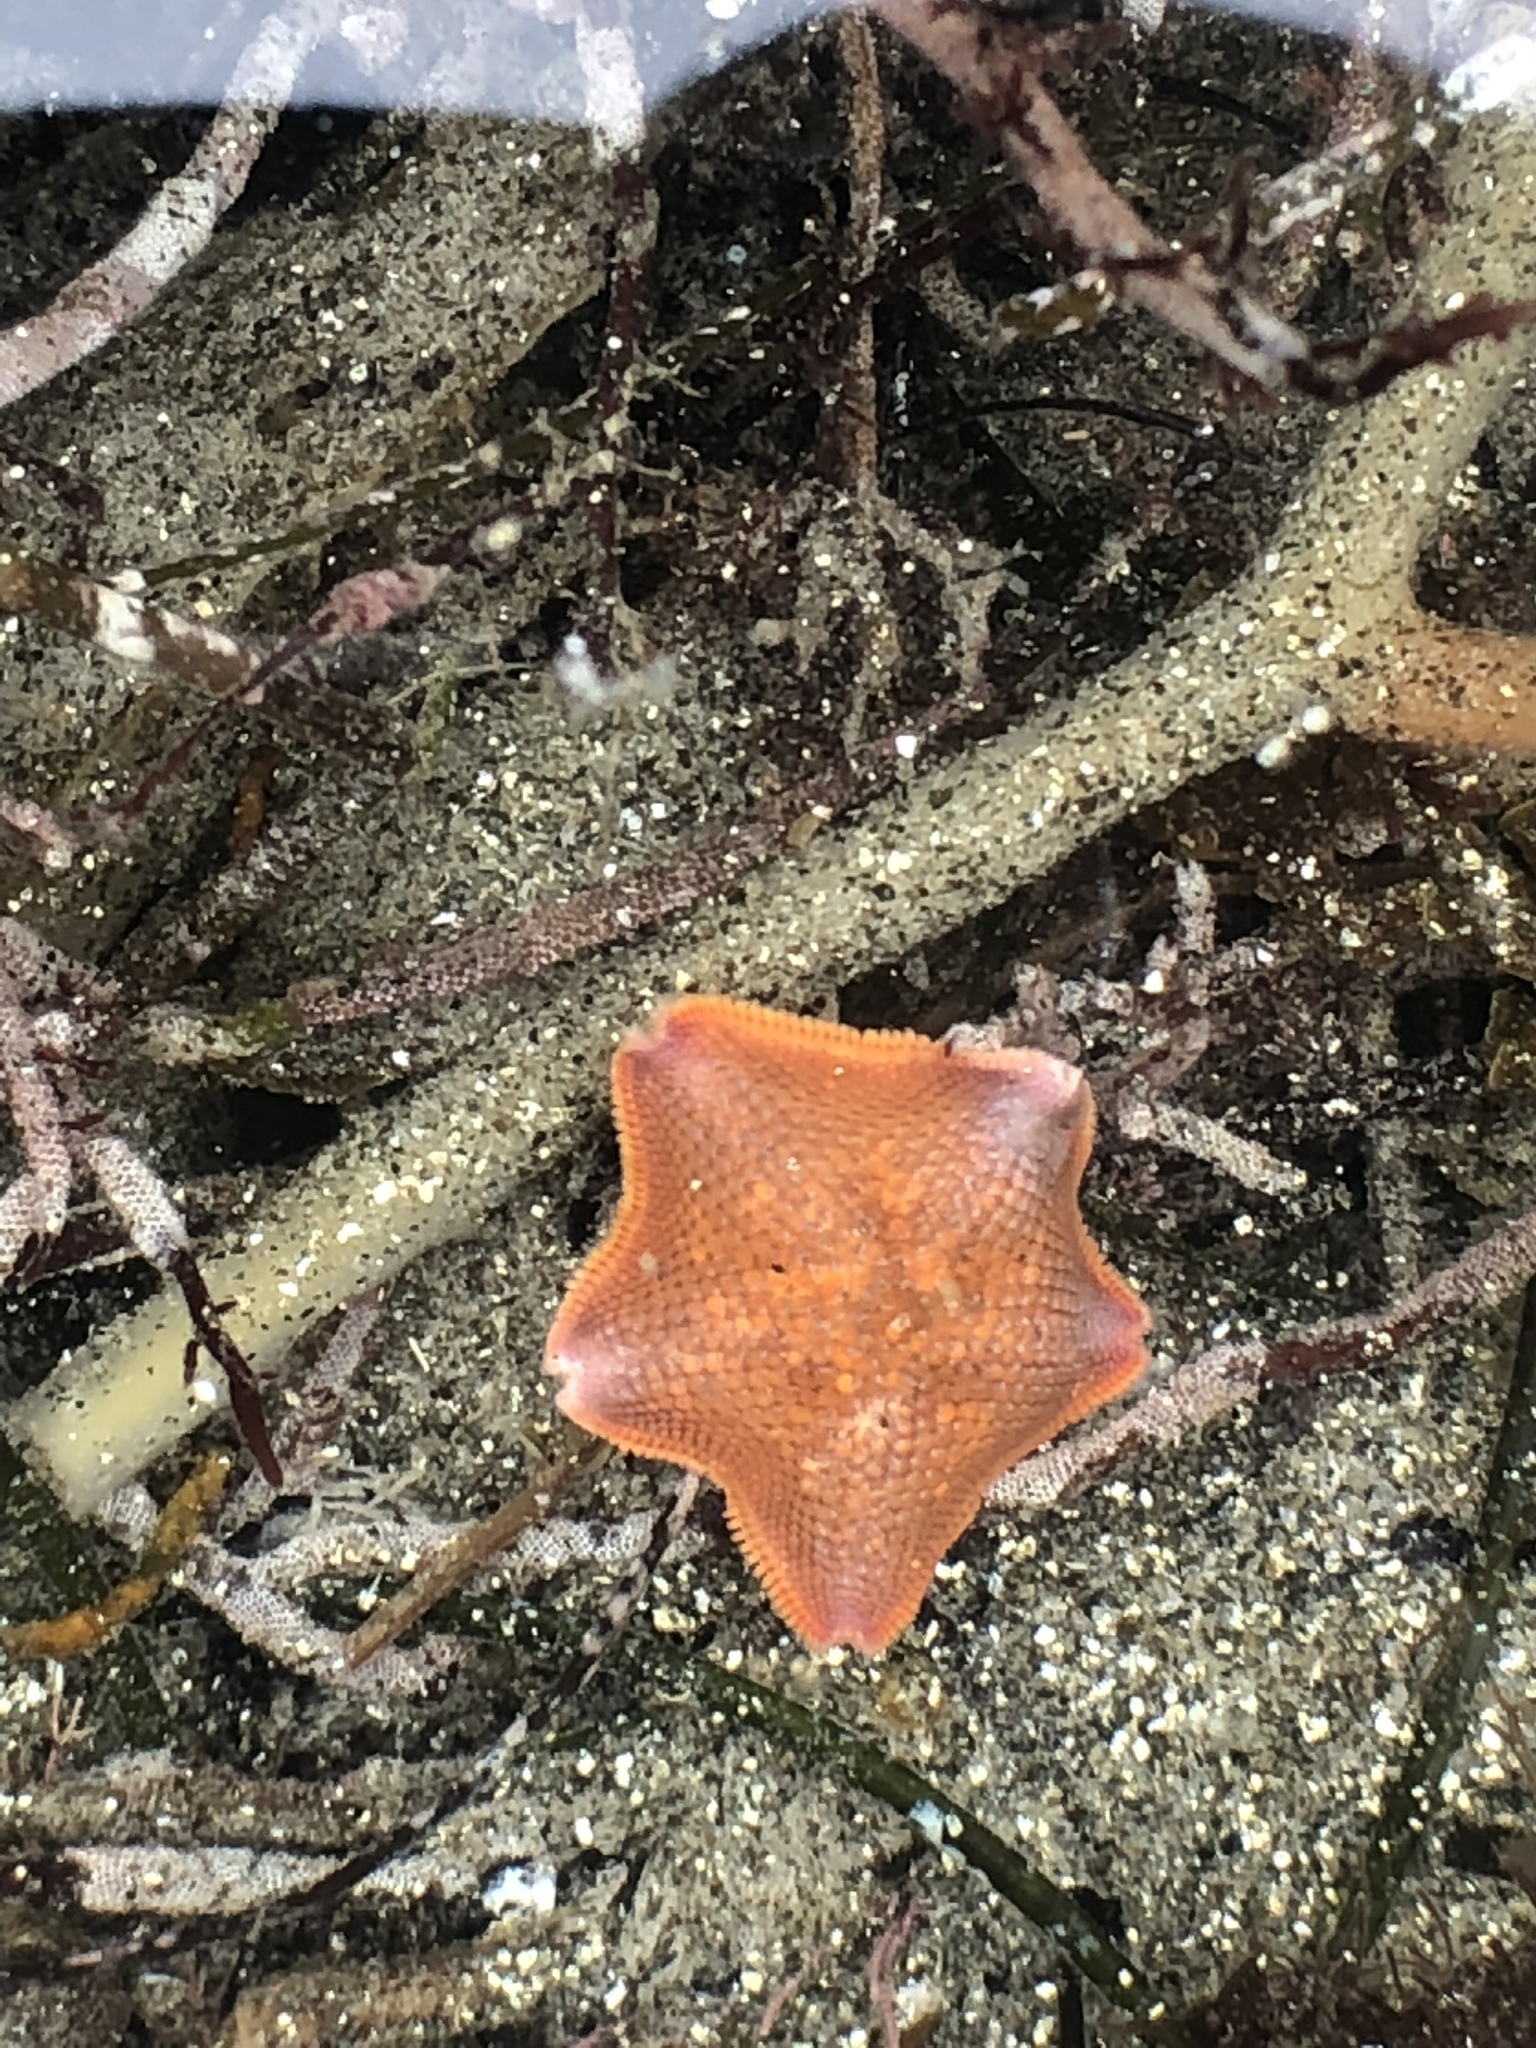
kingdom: Animalia
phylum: Echinodermata
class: Asteroidea
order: Valvatida
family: Asterinidae
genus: Patiria
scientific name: Patiria miniata
